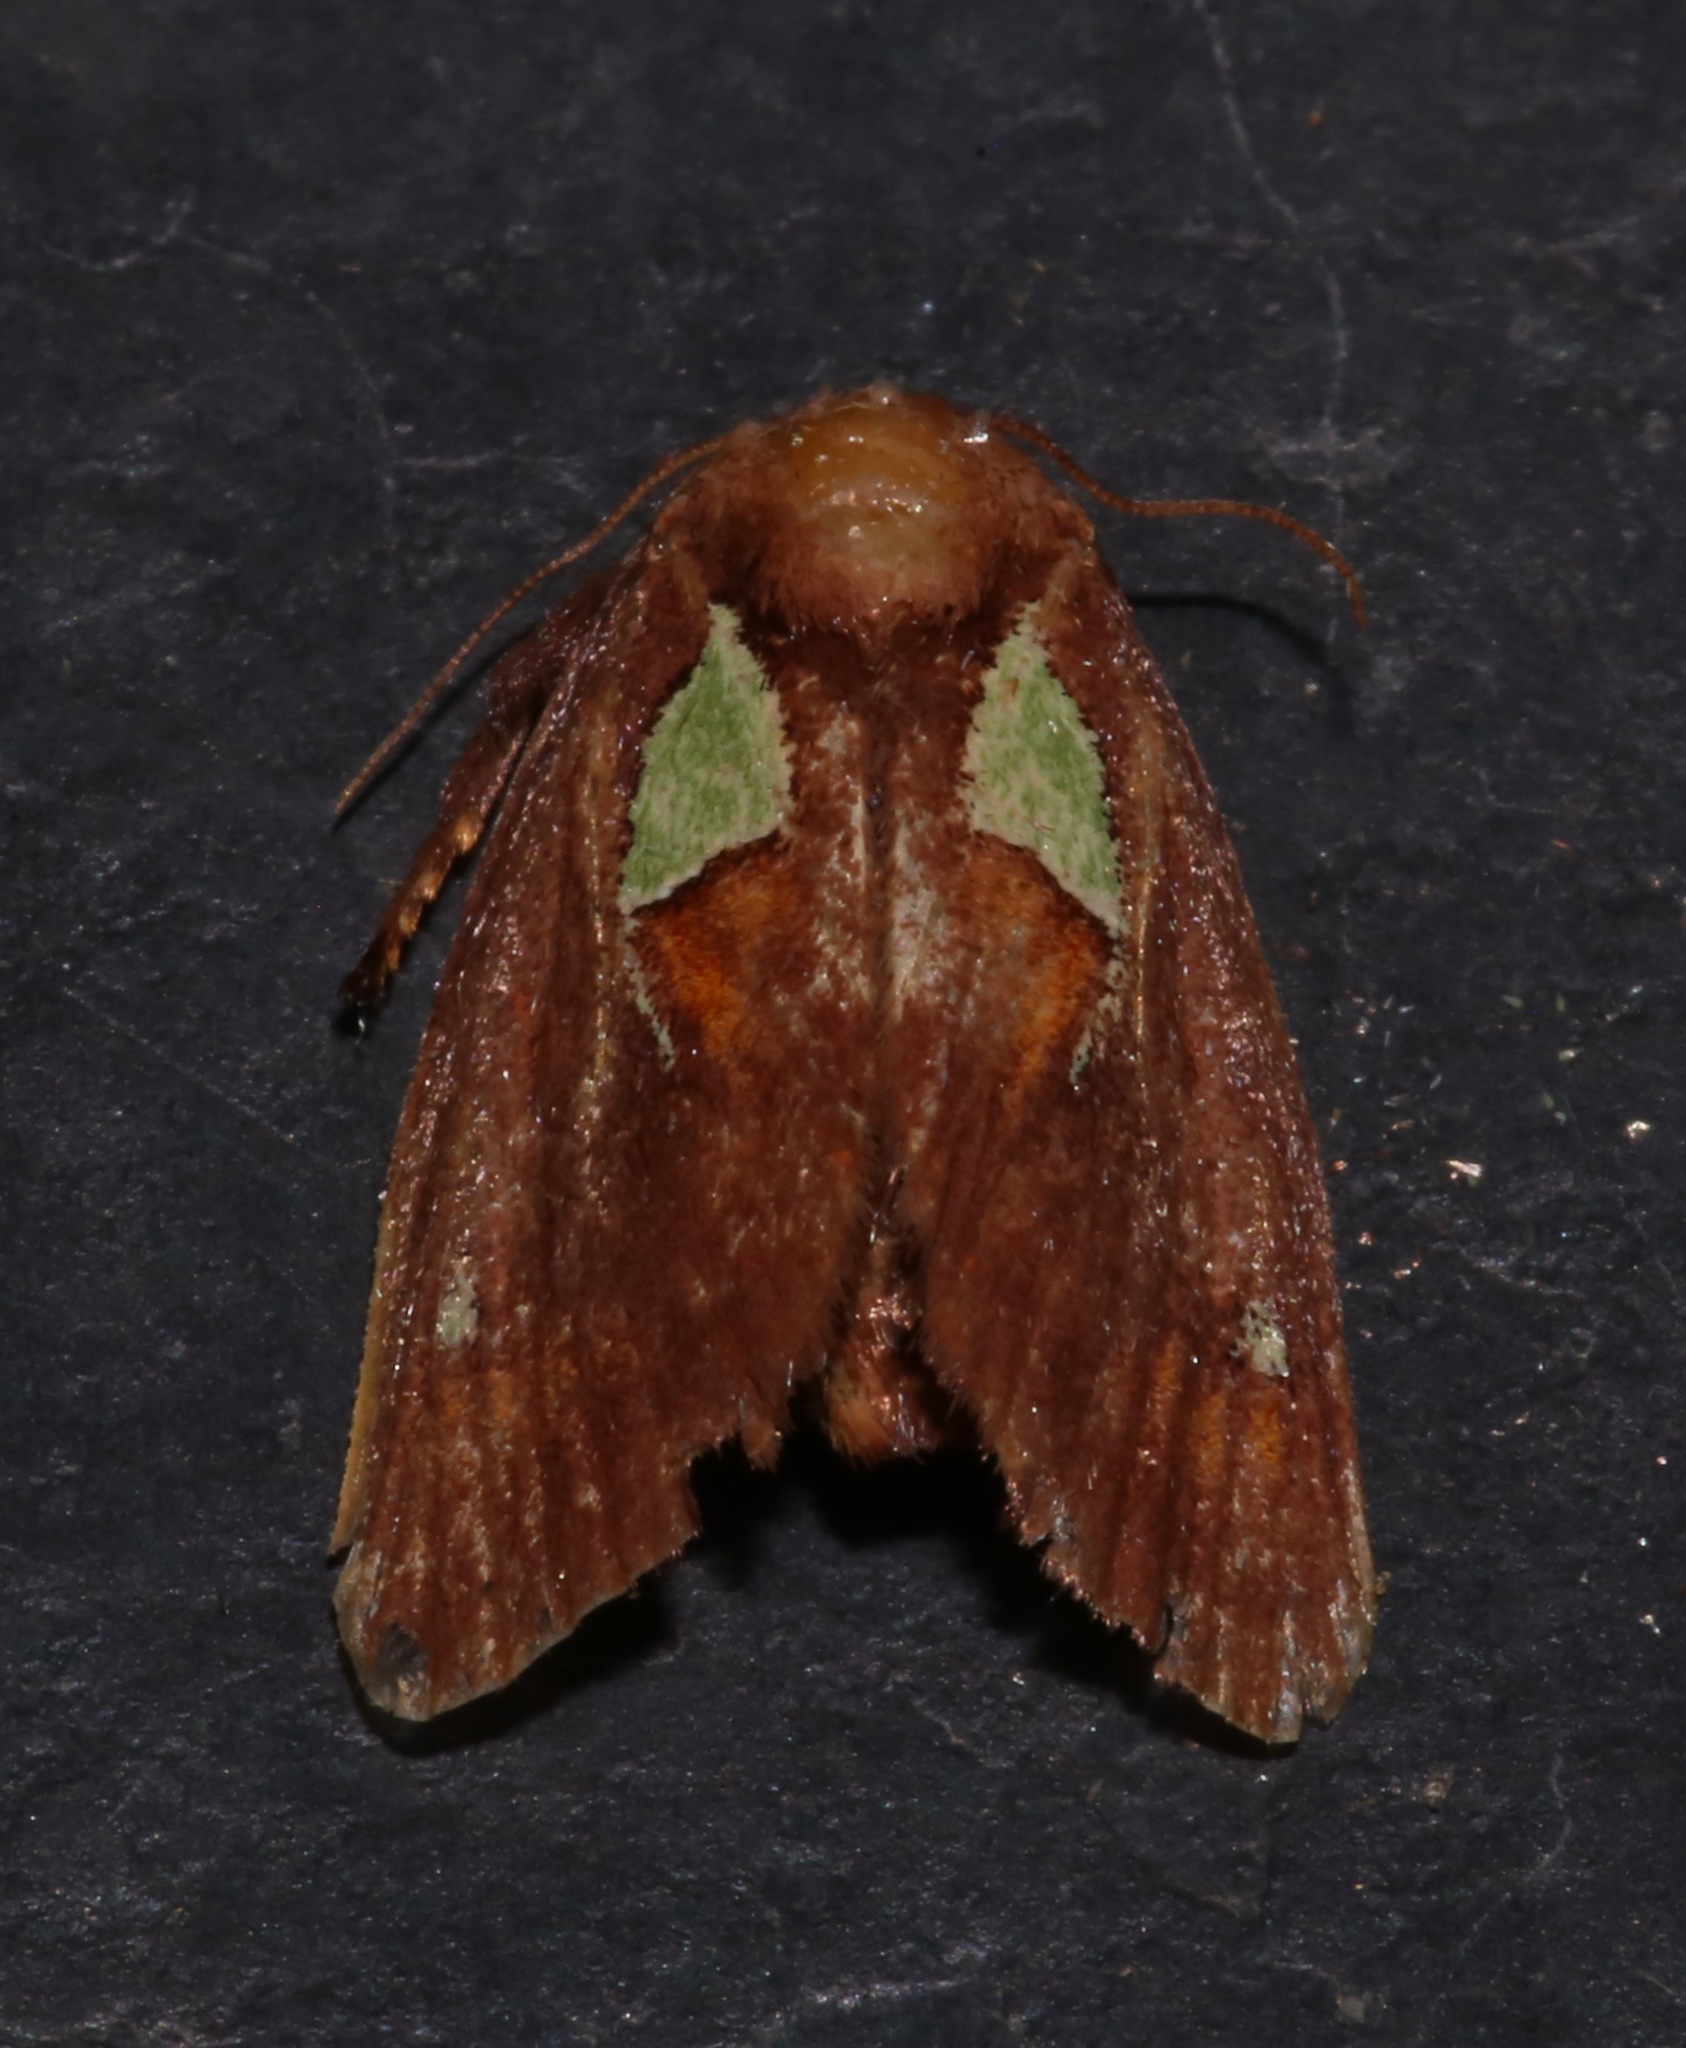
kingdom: Animalia
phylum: Arthropoda
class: Insecta
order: Lepidoptera
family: Limacodidae
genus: Euclea
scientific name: Euclea delphinii
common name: Spiny oak-slug moth
